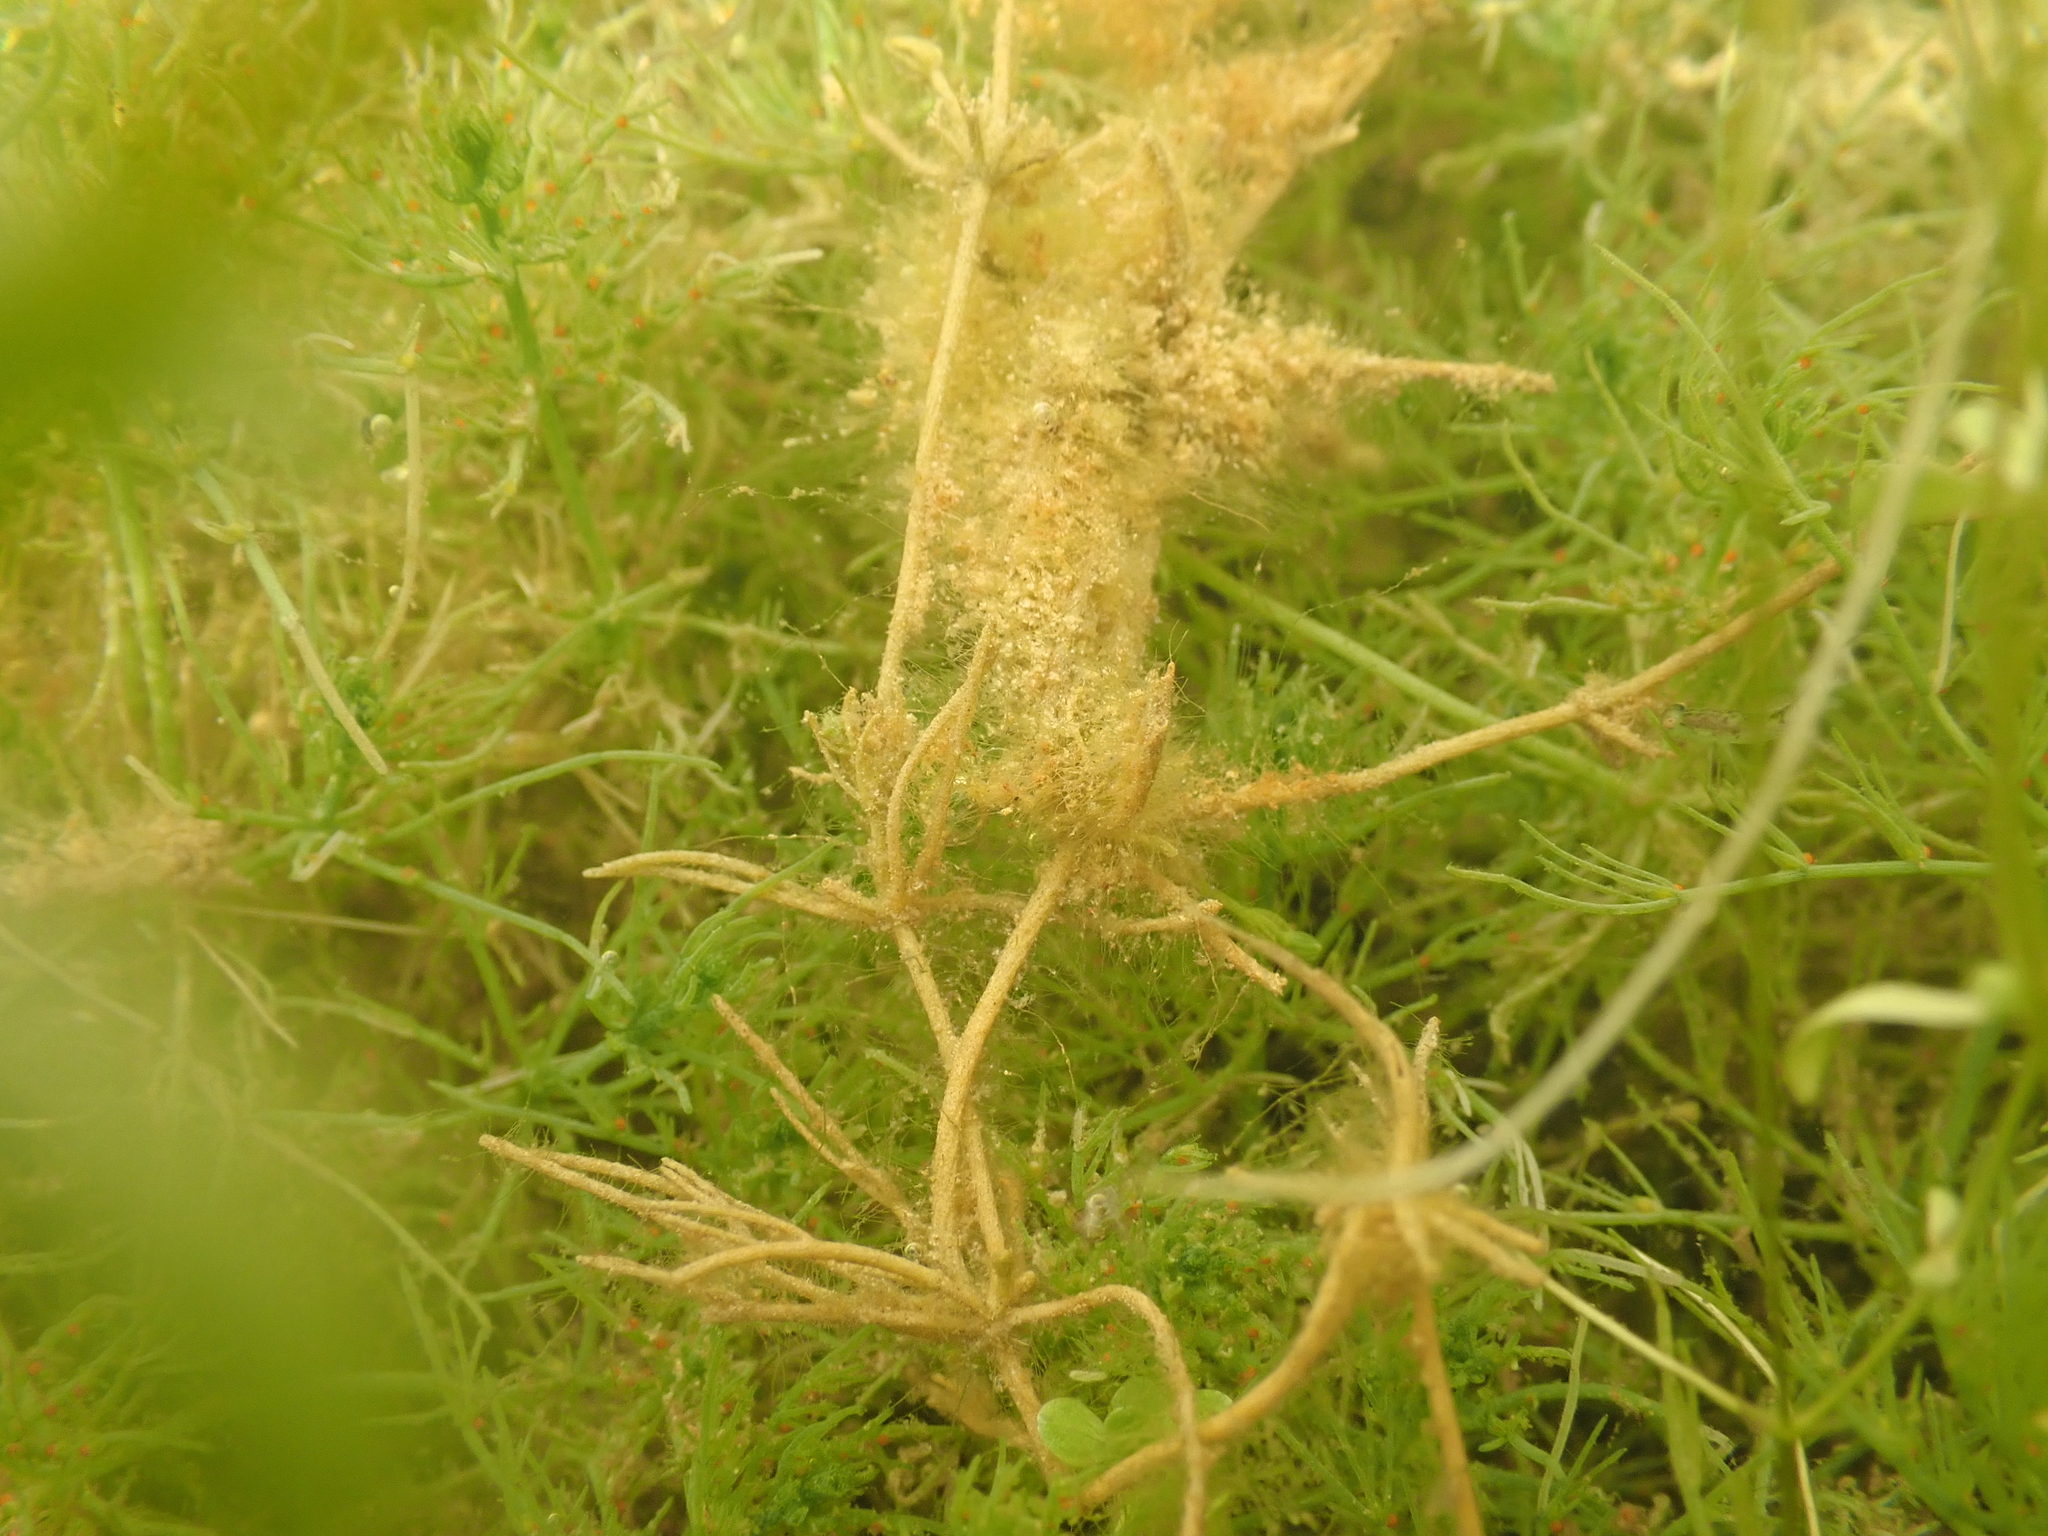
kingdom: Plantae
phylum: Charophyta
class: Charophyceae
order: Charales
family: Characeae
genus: Chara
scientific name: Chara vulgaris
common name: Common stonewort
